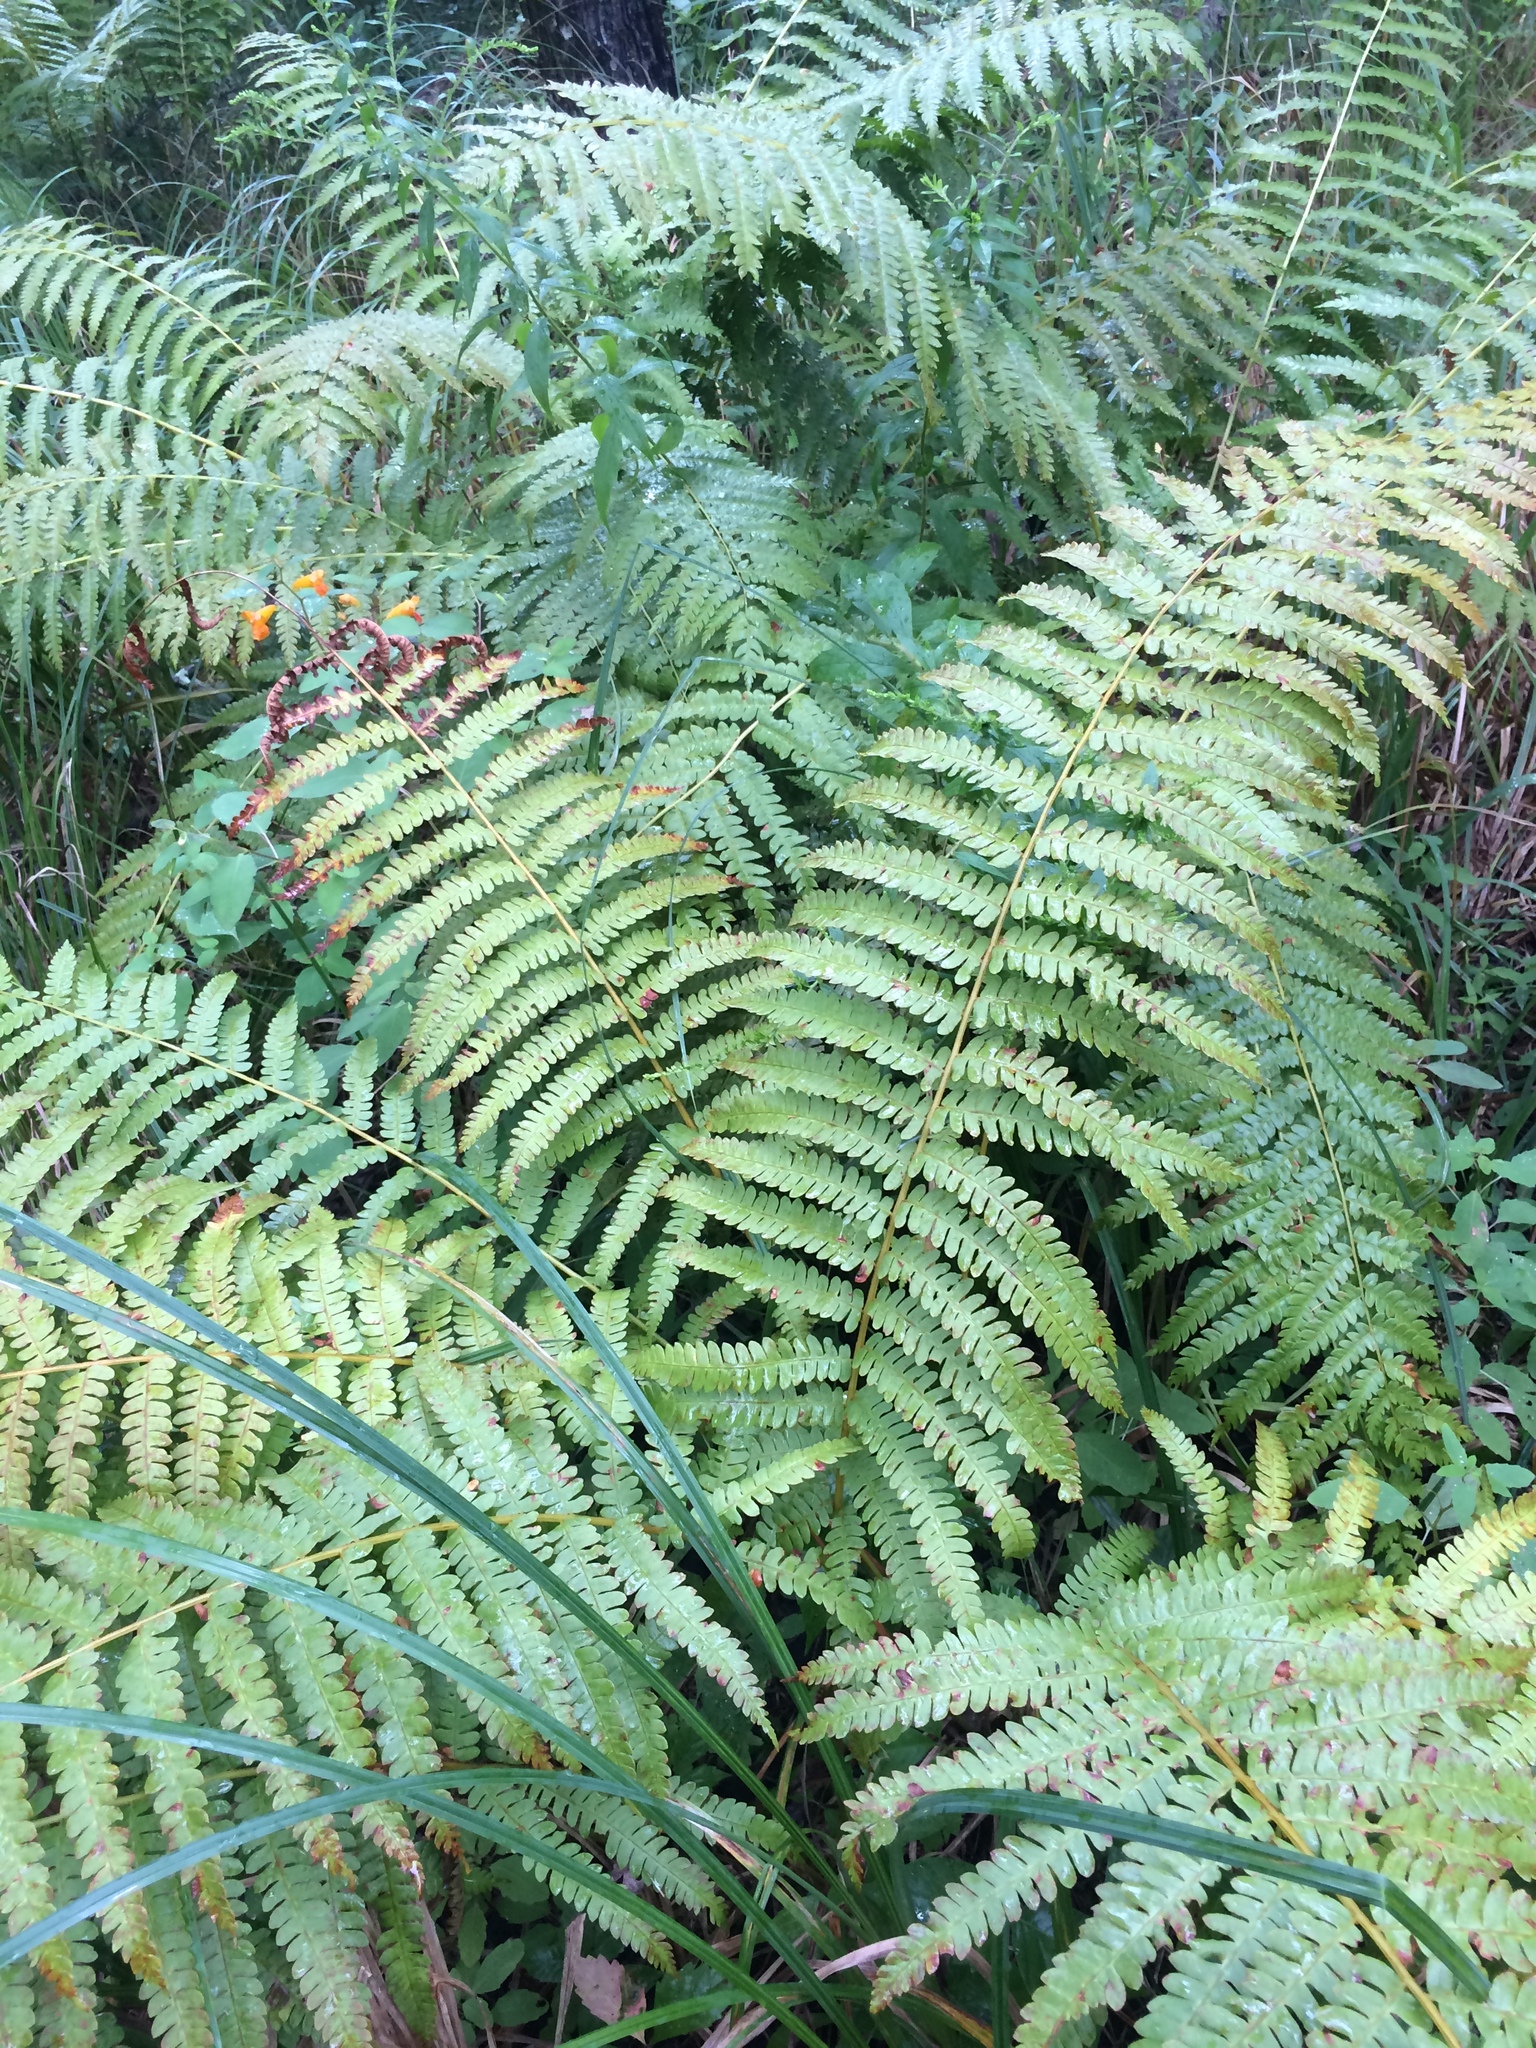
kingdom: Plantae
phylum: Tracheophyta
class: Polypodiopsida
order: Osmundales
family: Osmundaceae
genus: Osmundastrum
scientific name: Osmundastrum cinnamomeum
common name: Cinnamon fern
